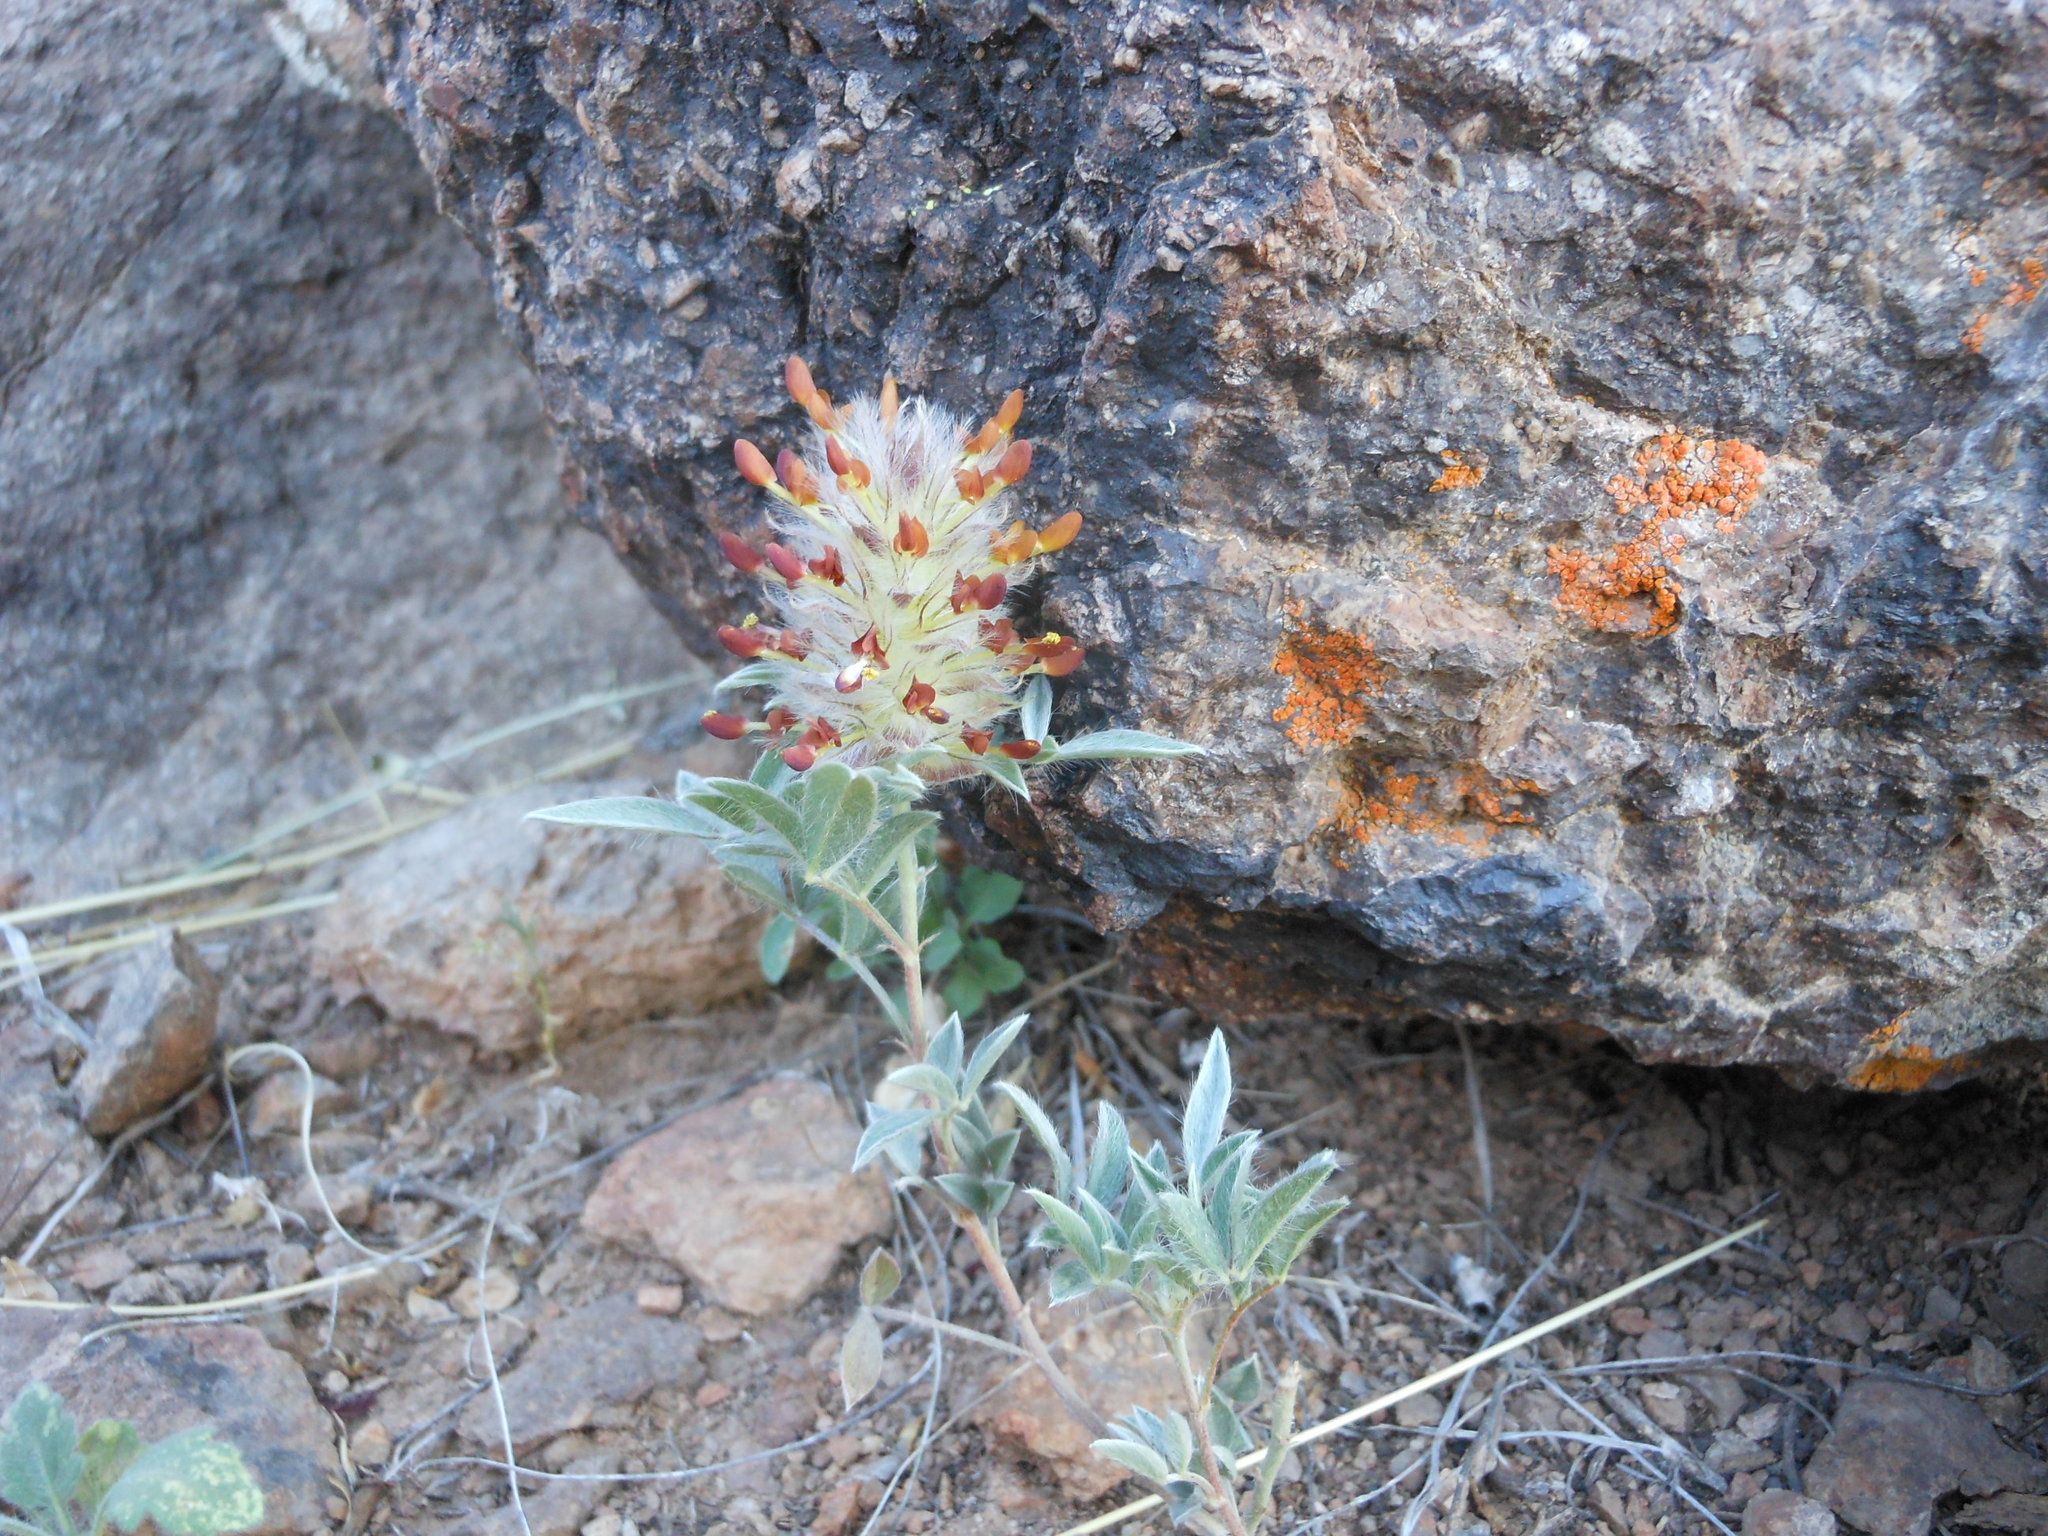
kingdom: Plantae
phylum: Tracheophyta
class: Magnoliopsida
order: Fabales
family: Fabaceae
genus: Dalea
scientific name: Dalea wrightii
